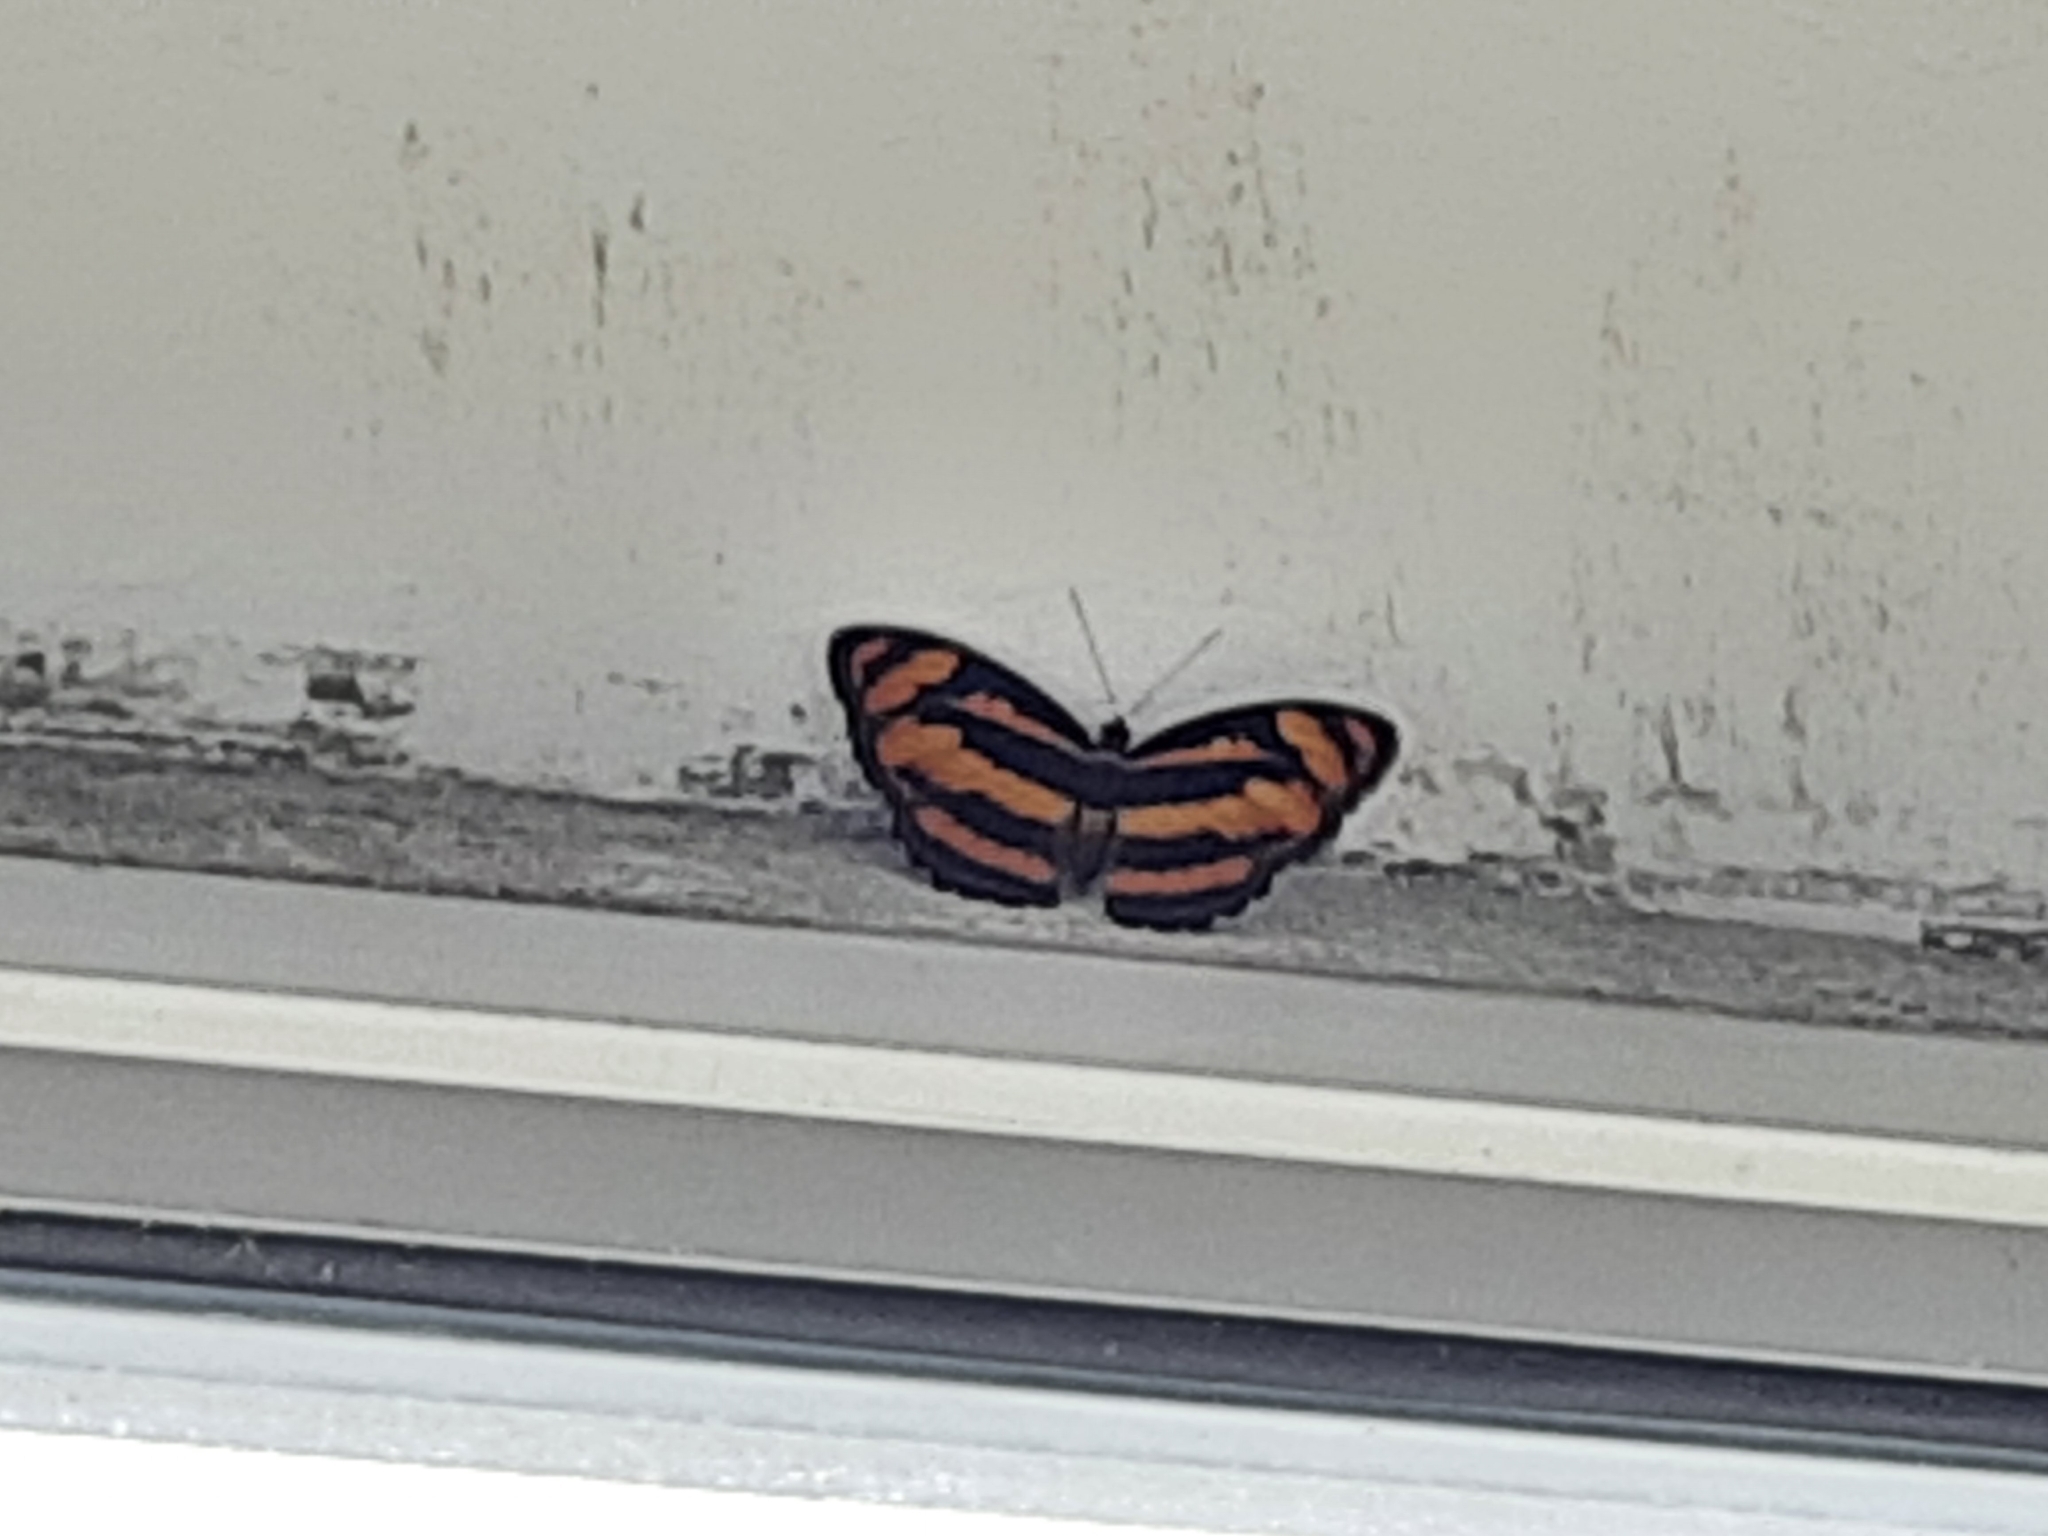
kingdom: Animalia
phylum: Arthropoda
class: Insecta
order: Lepidoptera
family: Nymphalidae
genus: Parathyma
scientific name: Parathyma nefte
